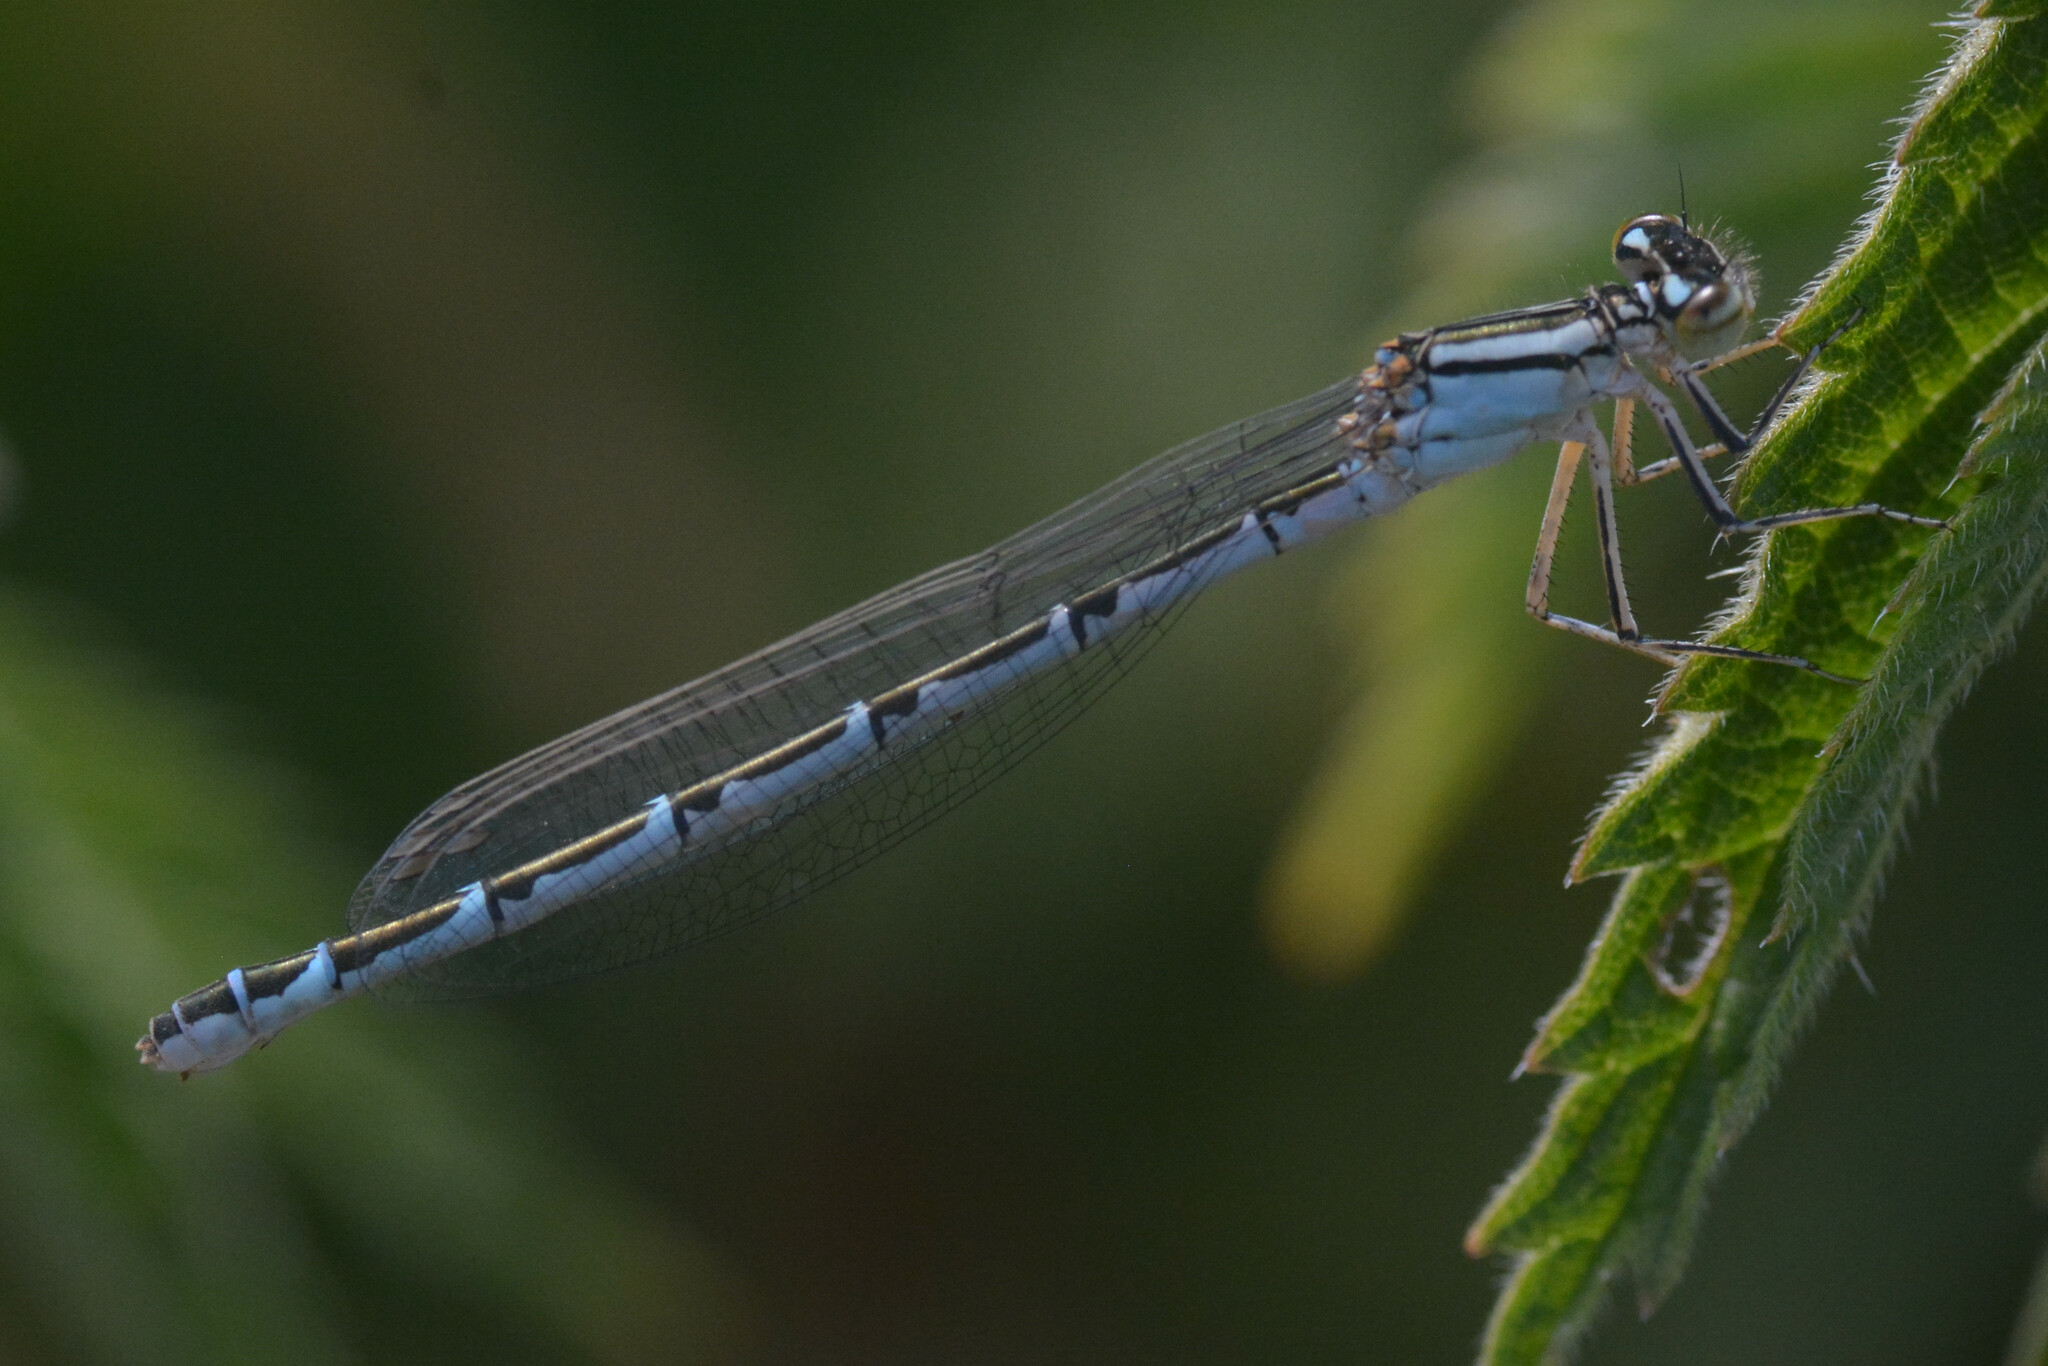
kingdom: Animalia
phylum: Arthropoda
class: Insecta
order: Odonata
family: Coenagrionidae
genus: Enallagma
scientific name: Enallagma cyathigerum
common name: Common blue damselfly
